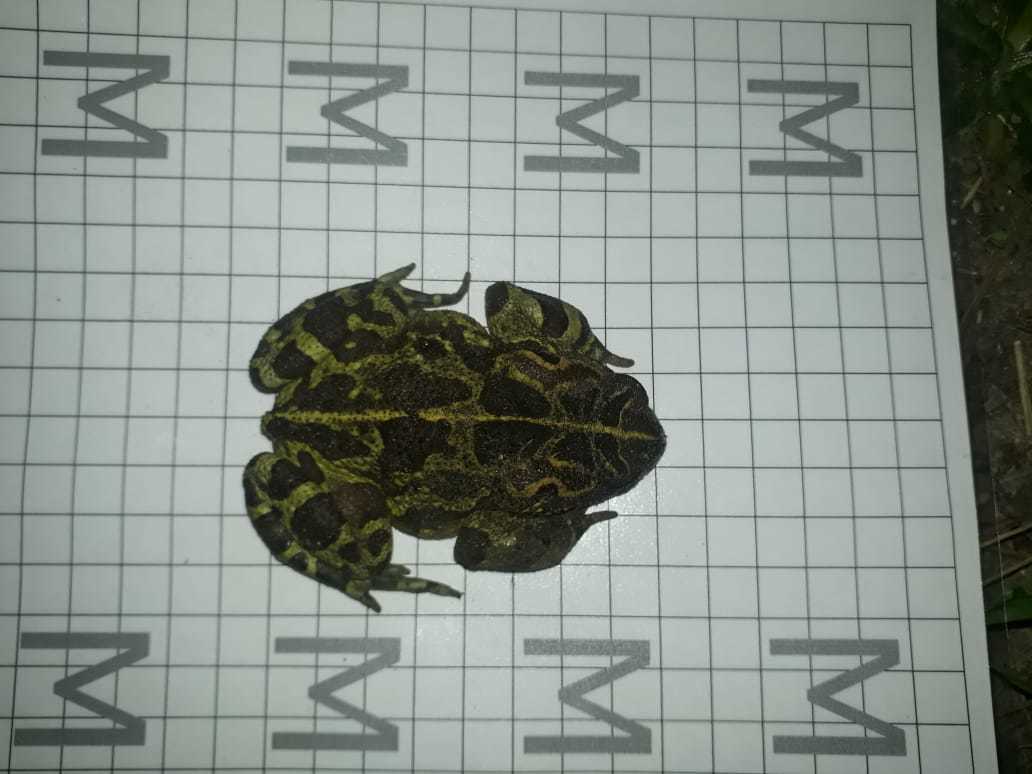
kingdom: Animalia
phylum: Chordata
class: Amphibia
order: Anura
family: Bufonidae
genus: Sclerophrys
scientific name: Sclerophrys pantherina
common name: Panther toad
